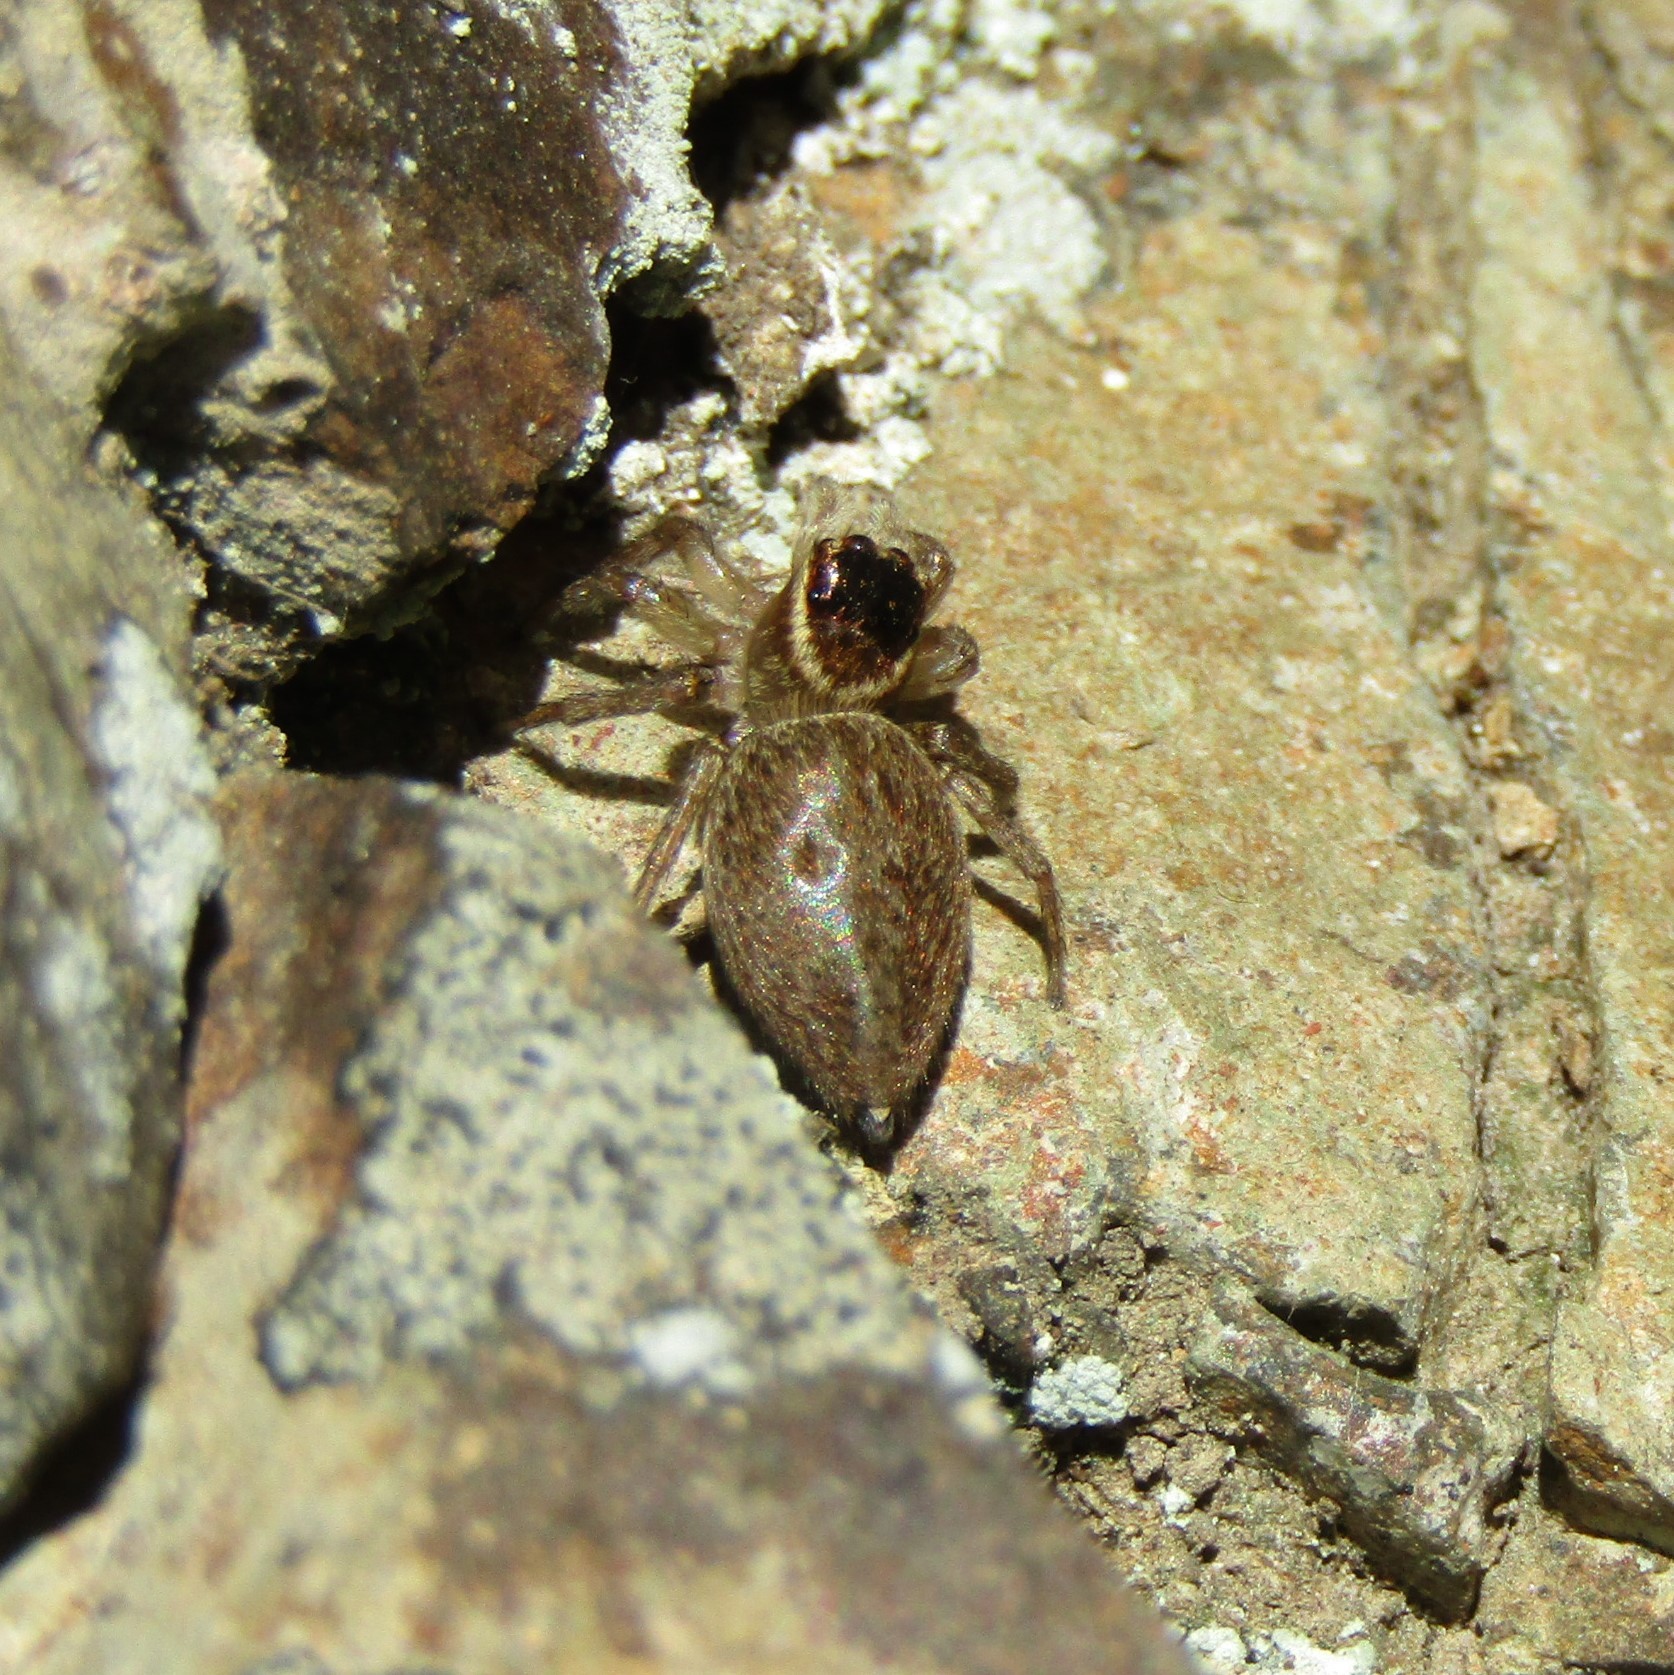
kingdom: Animalia
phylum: Arthropoda
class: Arachnida
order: Araneae
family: Salticidae
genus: Maratus
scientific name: Maratus griseus
